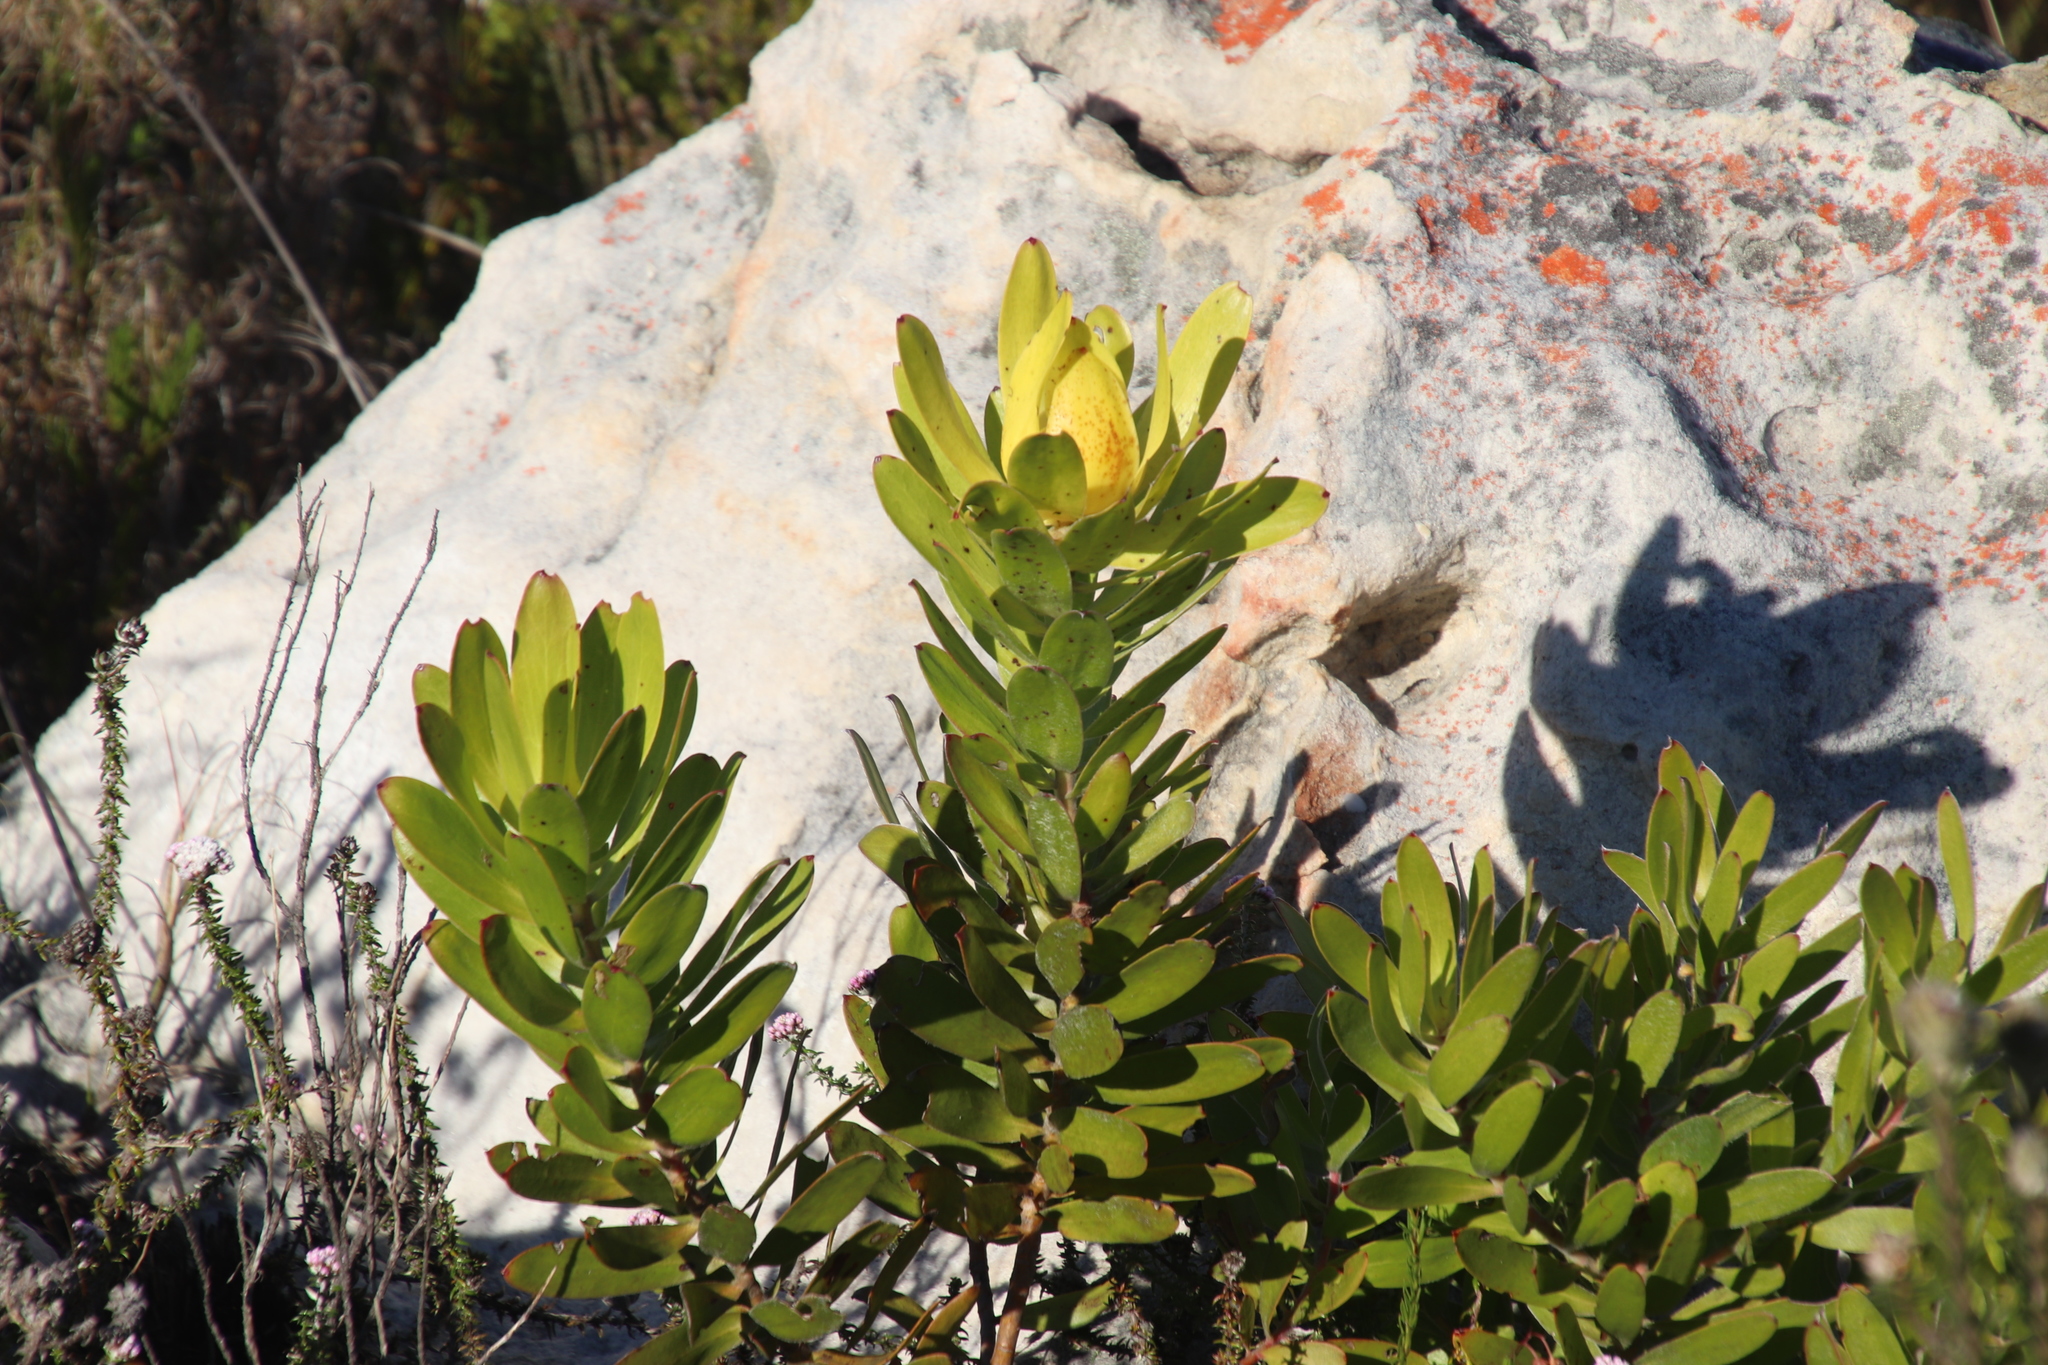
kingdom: Plantae
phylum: Tracheophyta
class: Magnoliopsida
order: Proteales
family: Proteaceae
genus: Leucadendron
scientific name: Leucadendron laureolum
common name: Golden sunshinebush
